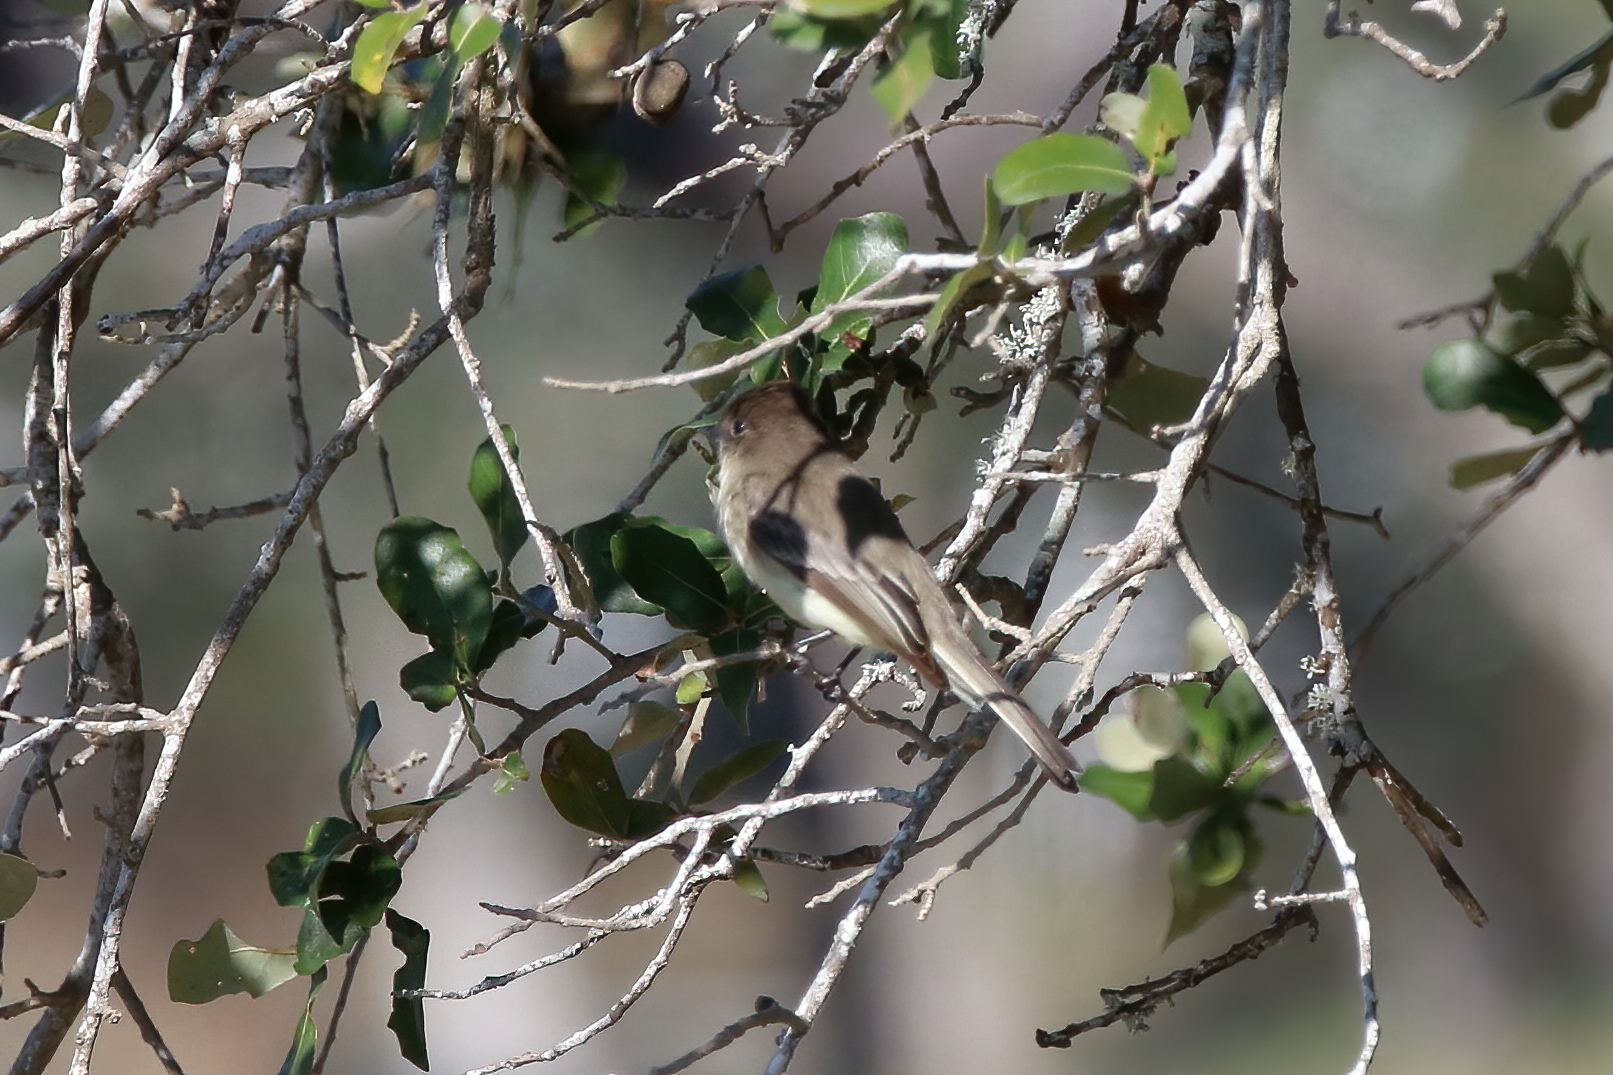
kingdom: Animalia
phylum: Chordata
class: Aves
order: Passeriformes
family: Tyrannidae
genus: Sayornis
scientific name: Sayornis phoebe
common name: Eastern phoebe
